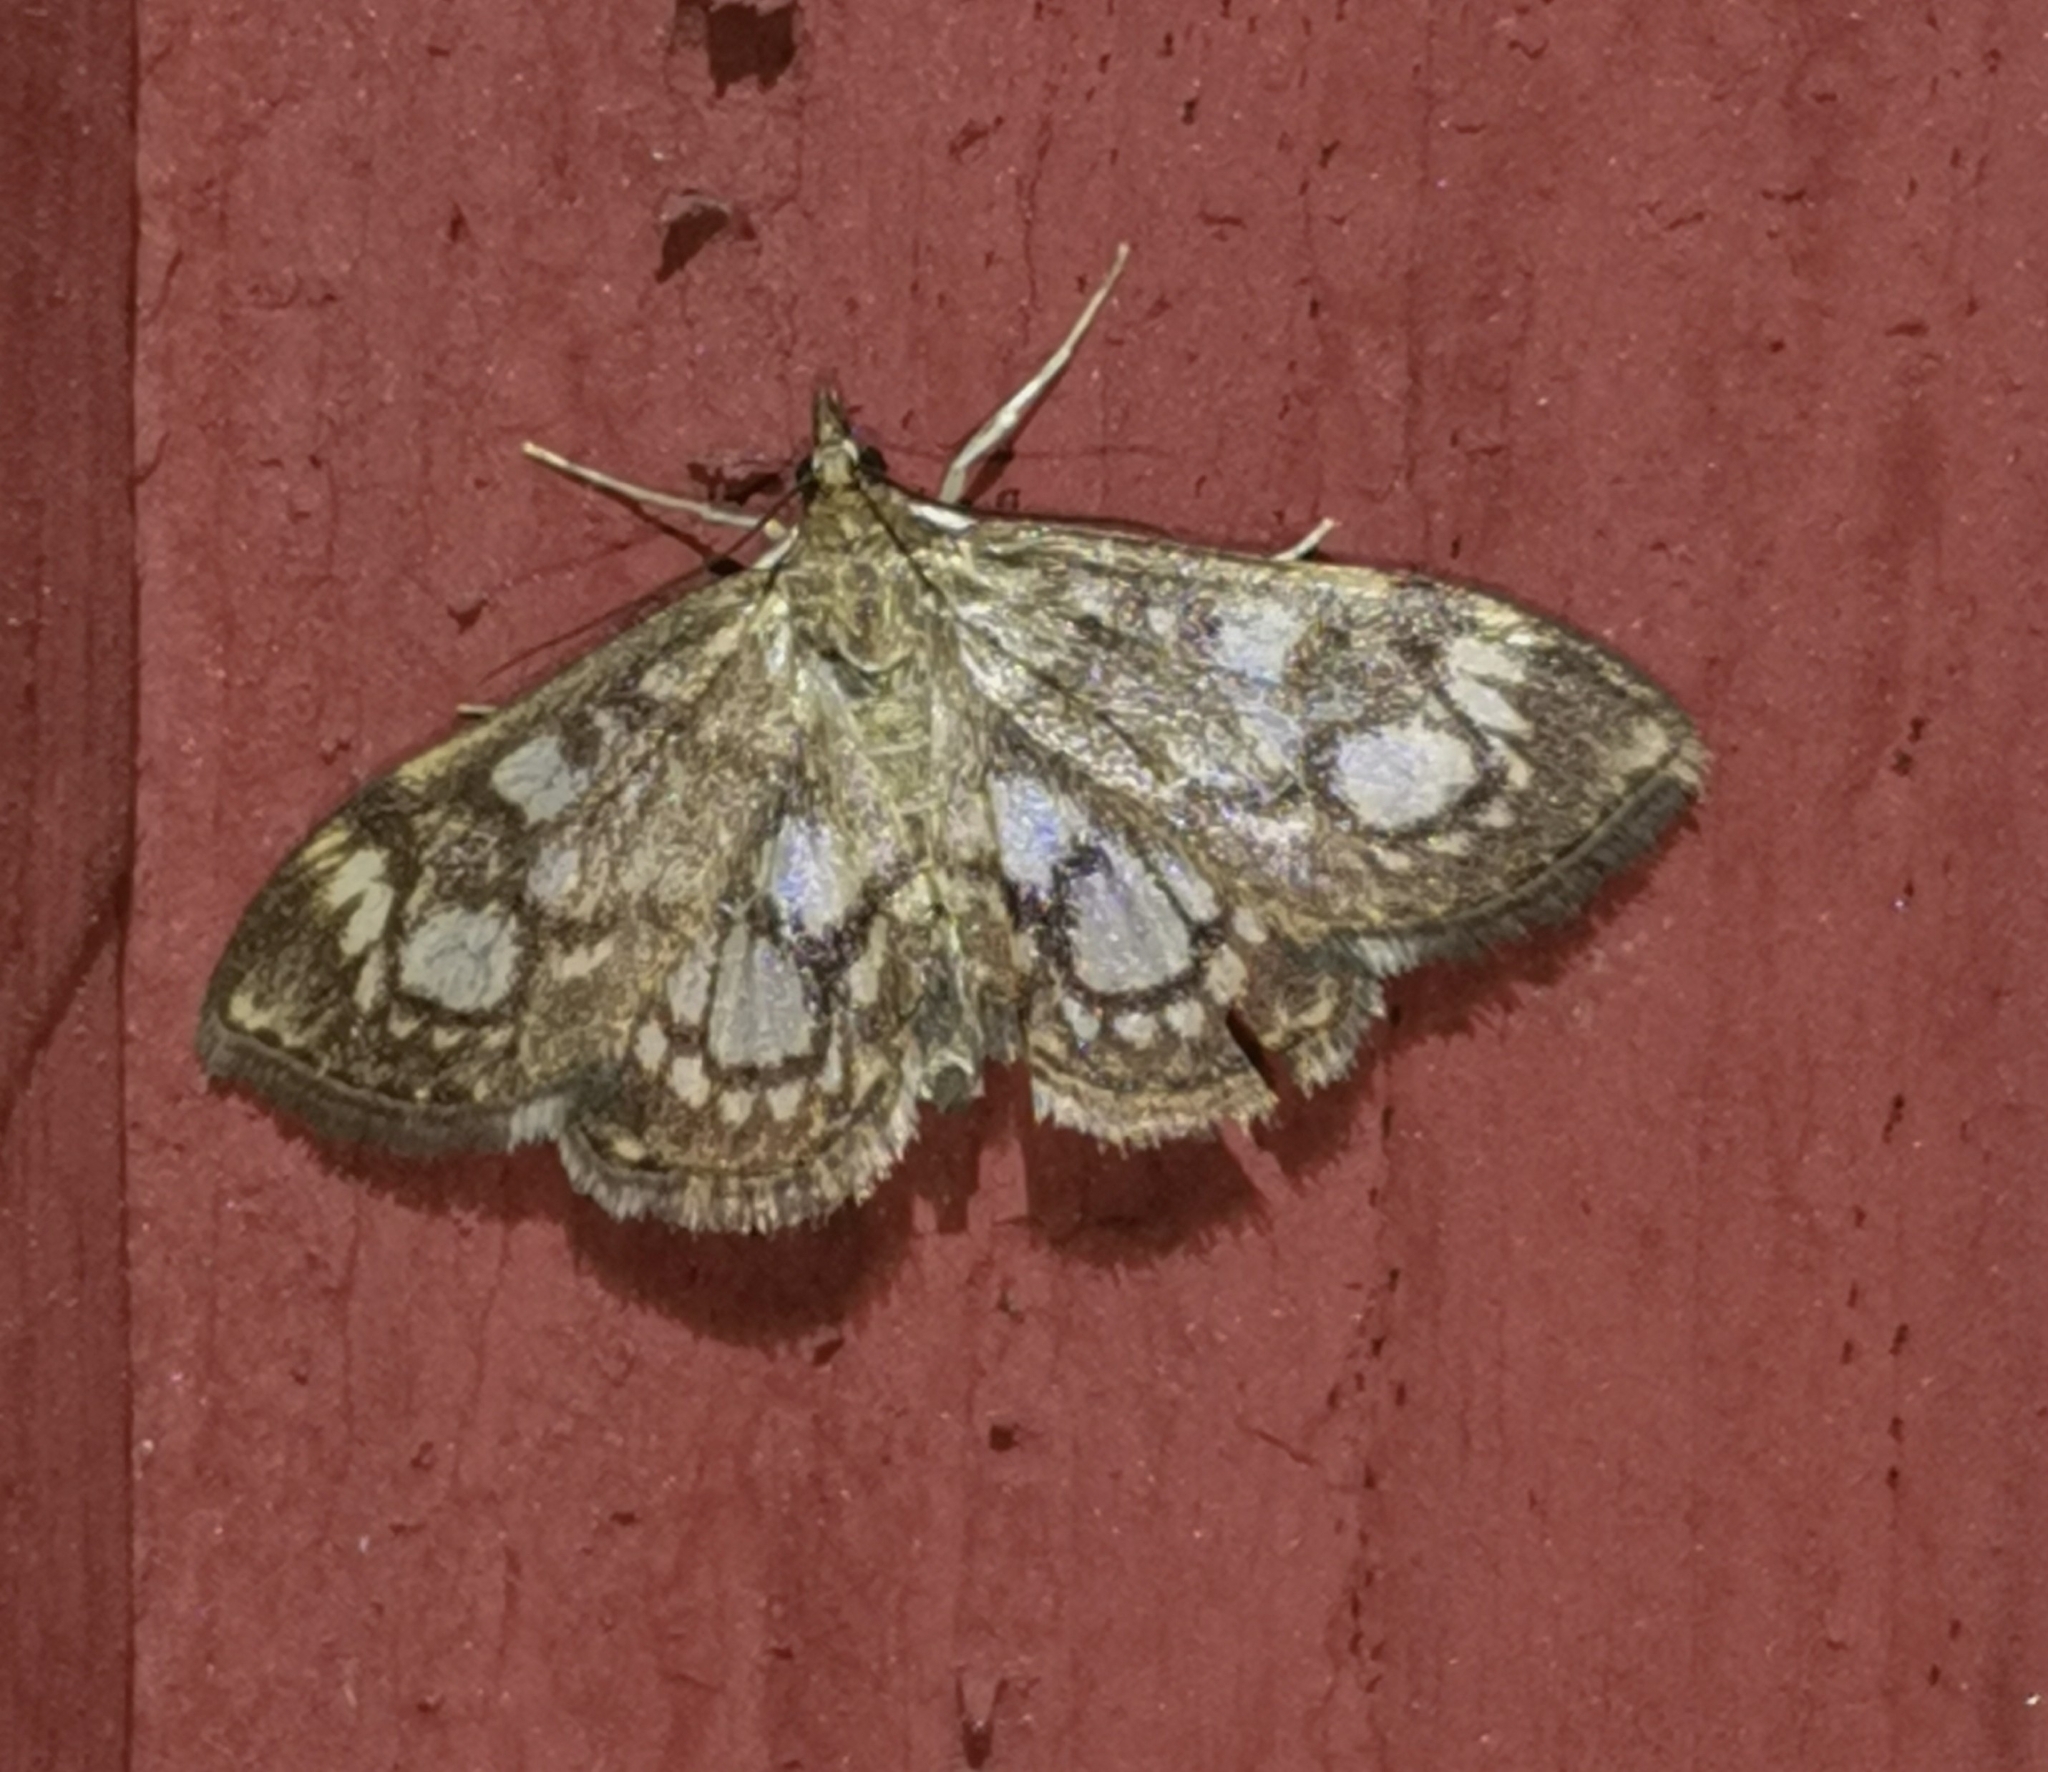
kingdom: Animalia
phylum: Arthropoda
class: Insecta
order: Lepidoptera
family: Crambidae
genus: Anania
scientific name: Anania coronata
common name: Elder pearl
